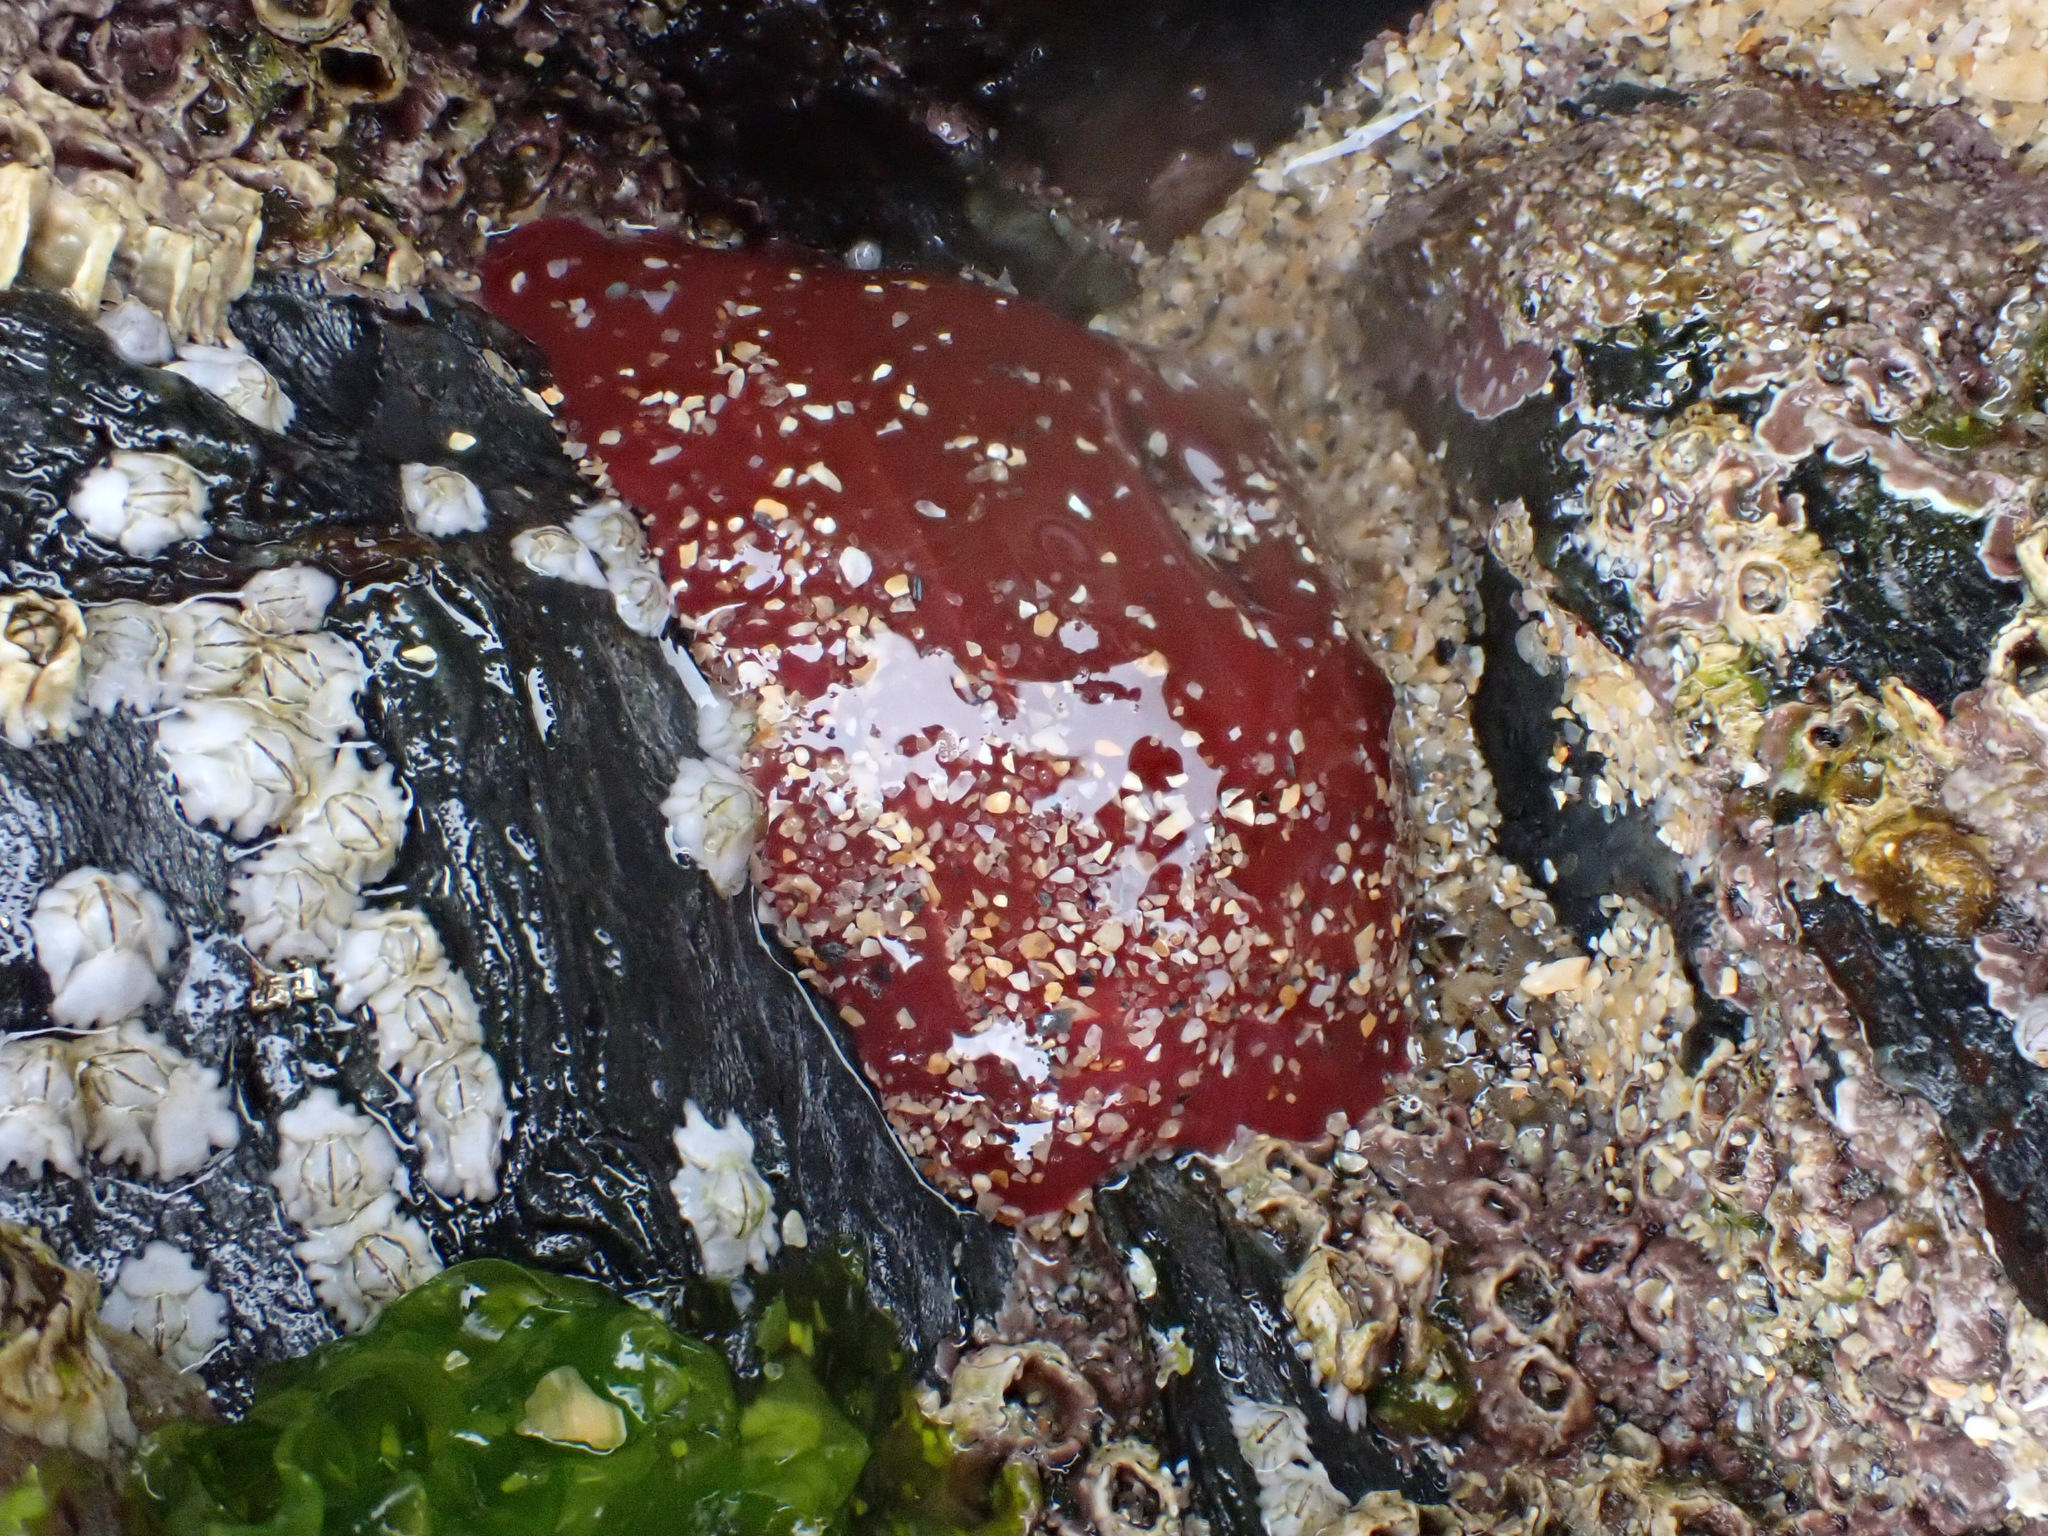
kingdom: Animalia
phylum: Cnidaria
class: Anthozoa
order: Actiniaria
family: Actiniidae
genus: Actinia
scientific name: Actinia equina
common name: Beadlet anemone
